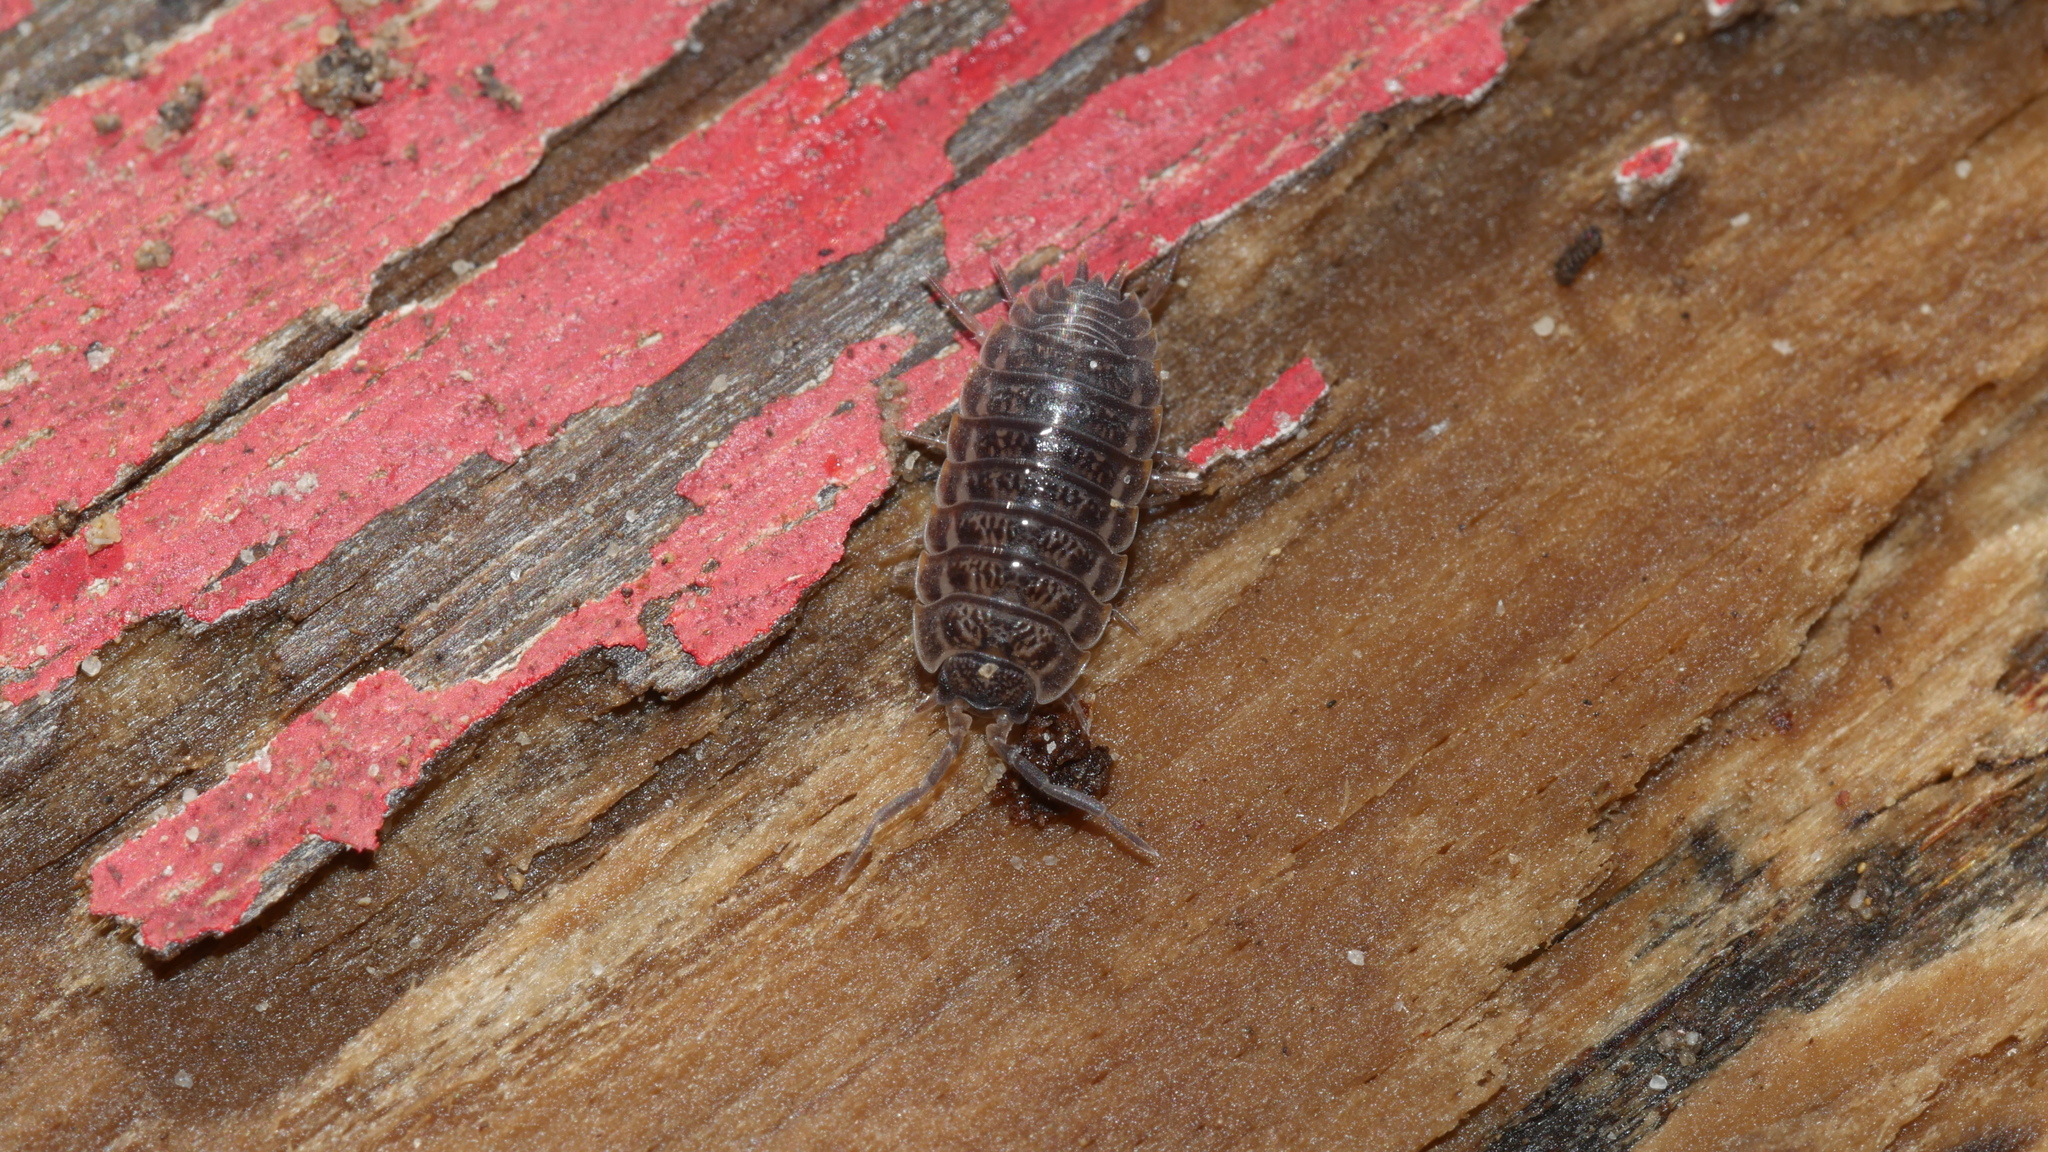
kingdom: Animalia
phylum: Arthropoda
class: Malacostraca
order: Isopoda
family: Trachelipodidae
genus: Trachelipus
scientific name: Trachelipus rathkii
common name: Isopod
